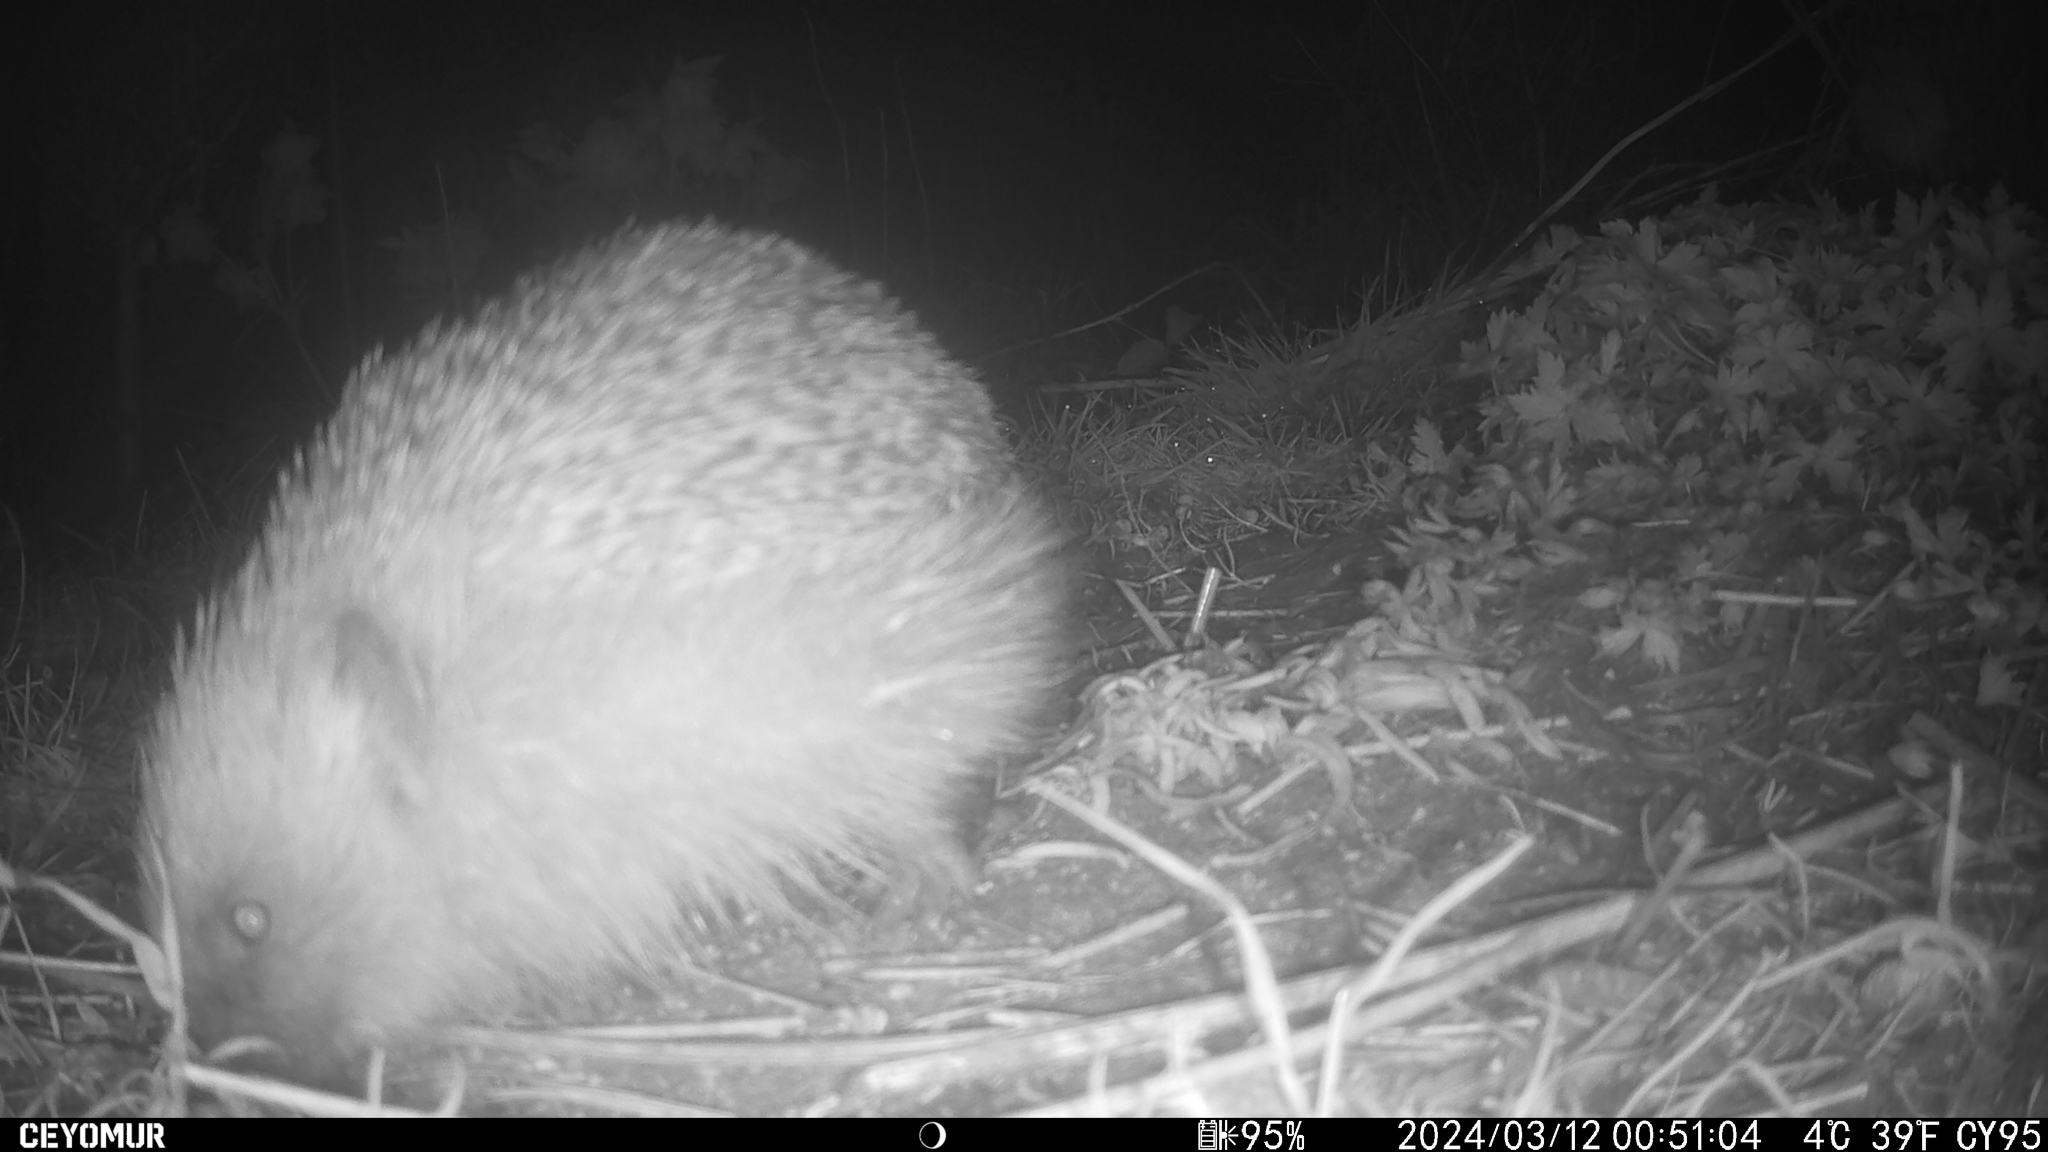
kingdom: Animalia
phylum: Chordata
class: Mammalia
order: Erinaceomorpha
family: Erinaceidae
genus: Erinaceus
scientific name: Erinaceus europaeus
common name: West european hedgehog
